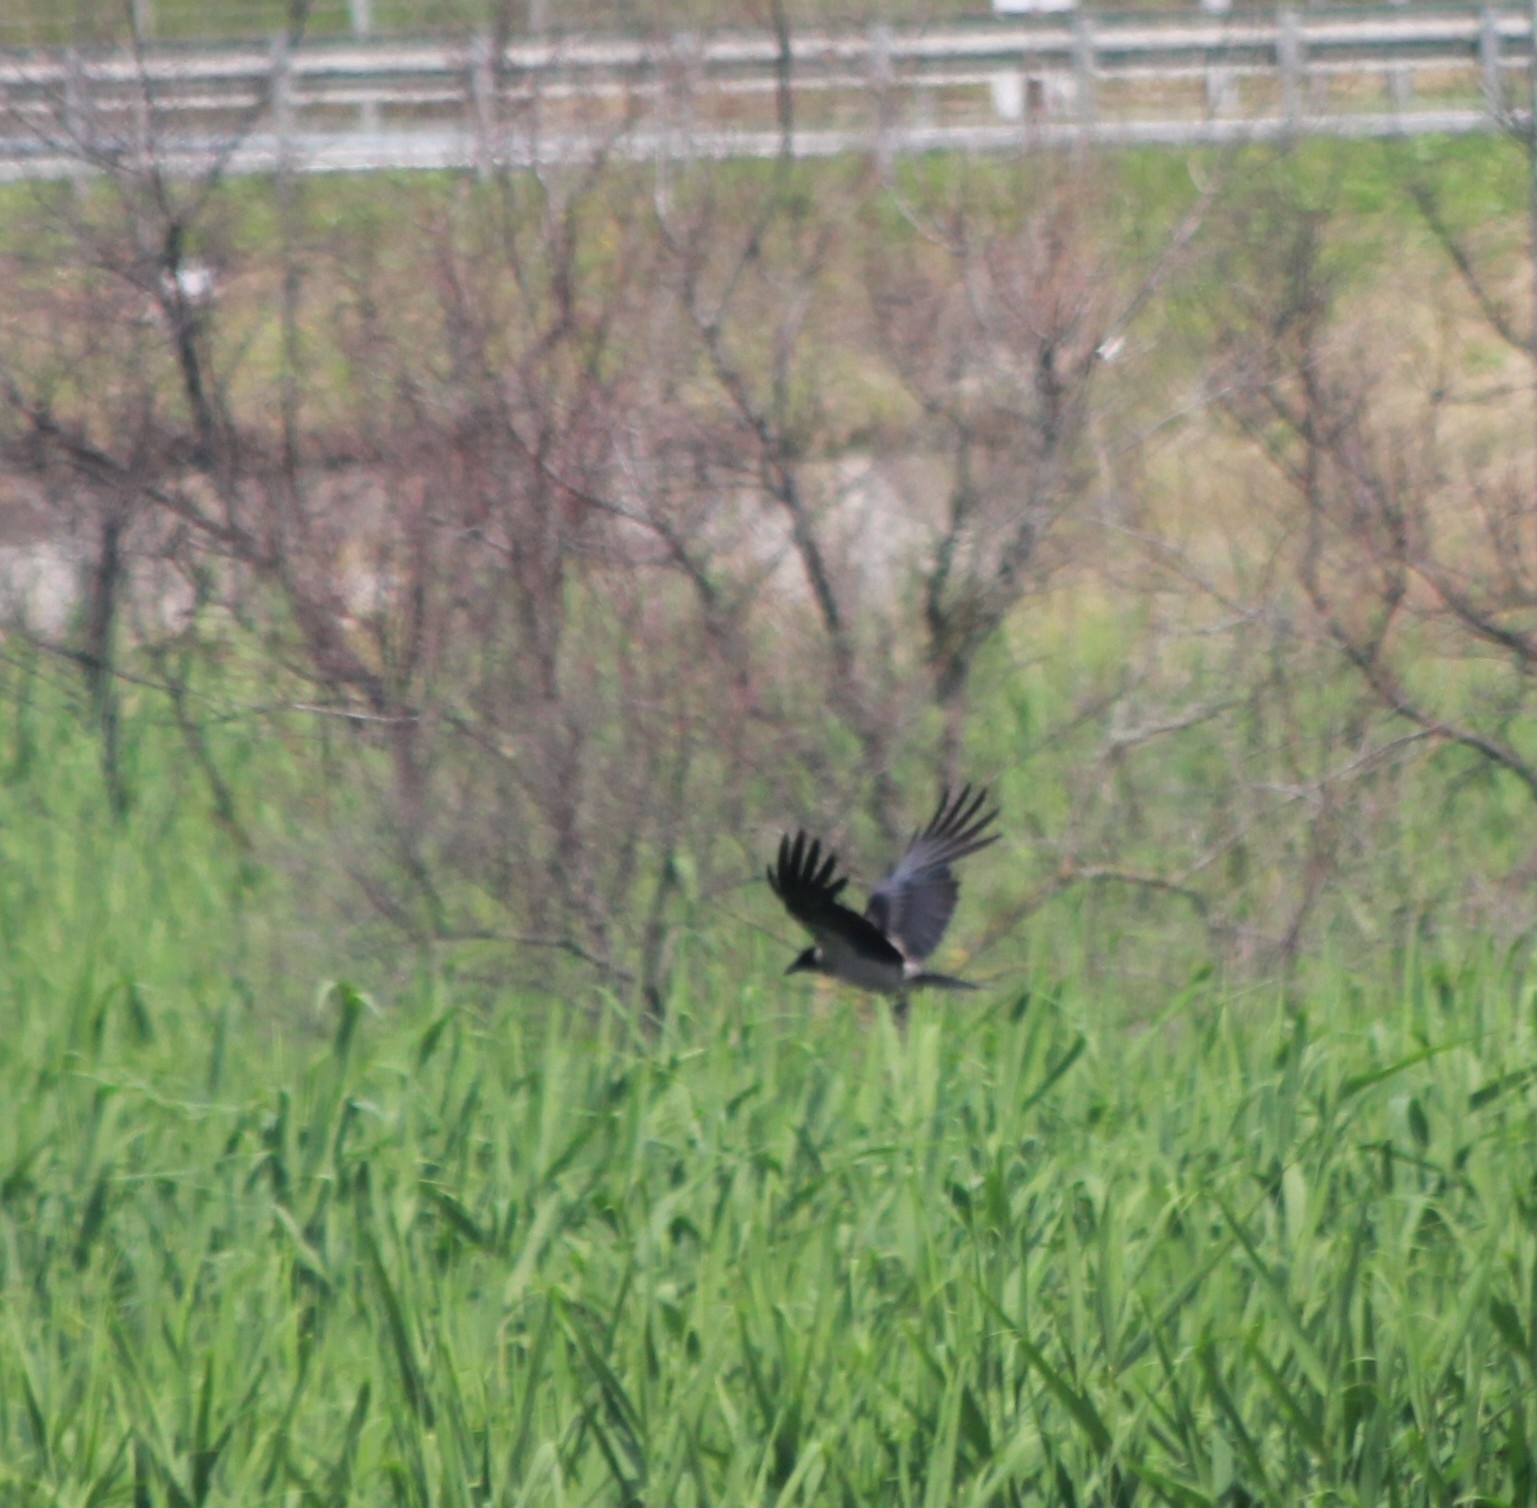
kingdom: Animalia
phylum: Chordata
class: Aves
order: Passeriformes
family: Corvidae
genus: Corvus
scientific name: Corvus cornix
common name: Hooded crow
